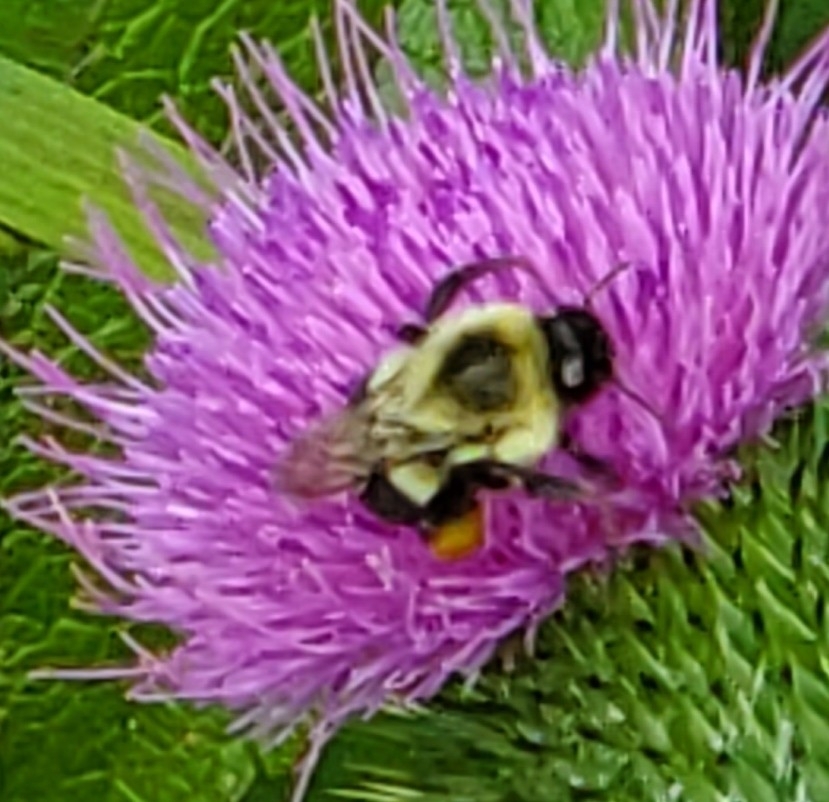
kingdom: Animalia
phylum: Arthropoda
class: Insecta
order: Hymenoptera
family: Apidae
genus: Bombus
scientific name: Bombus impatiens
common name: Common eastern bumble bee
